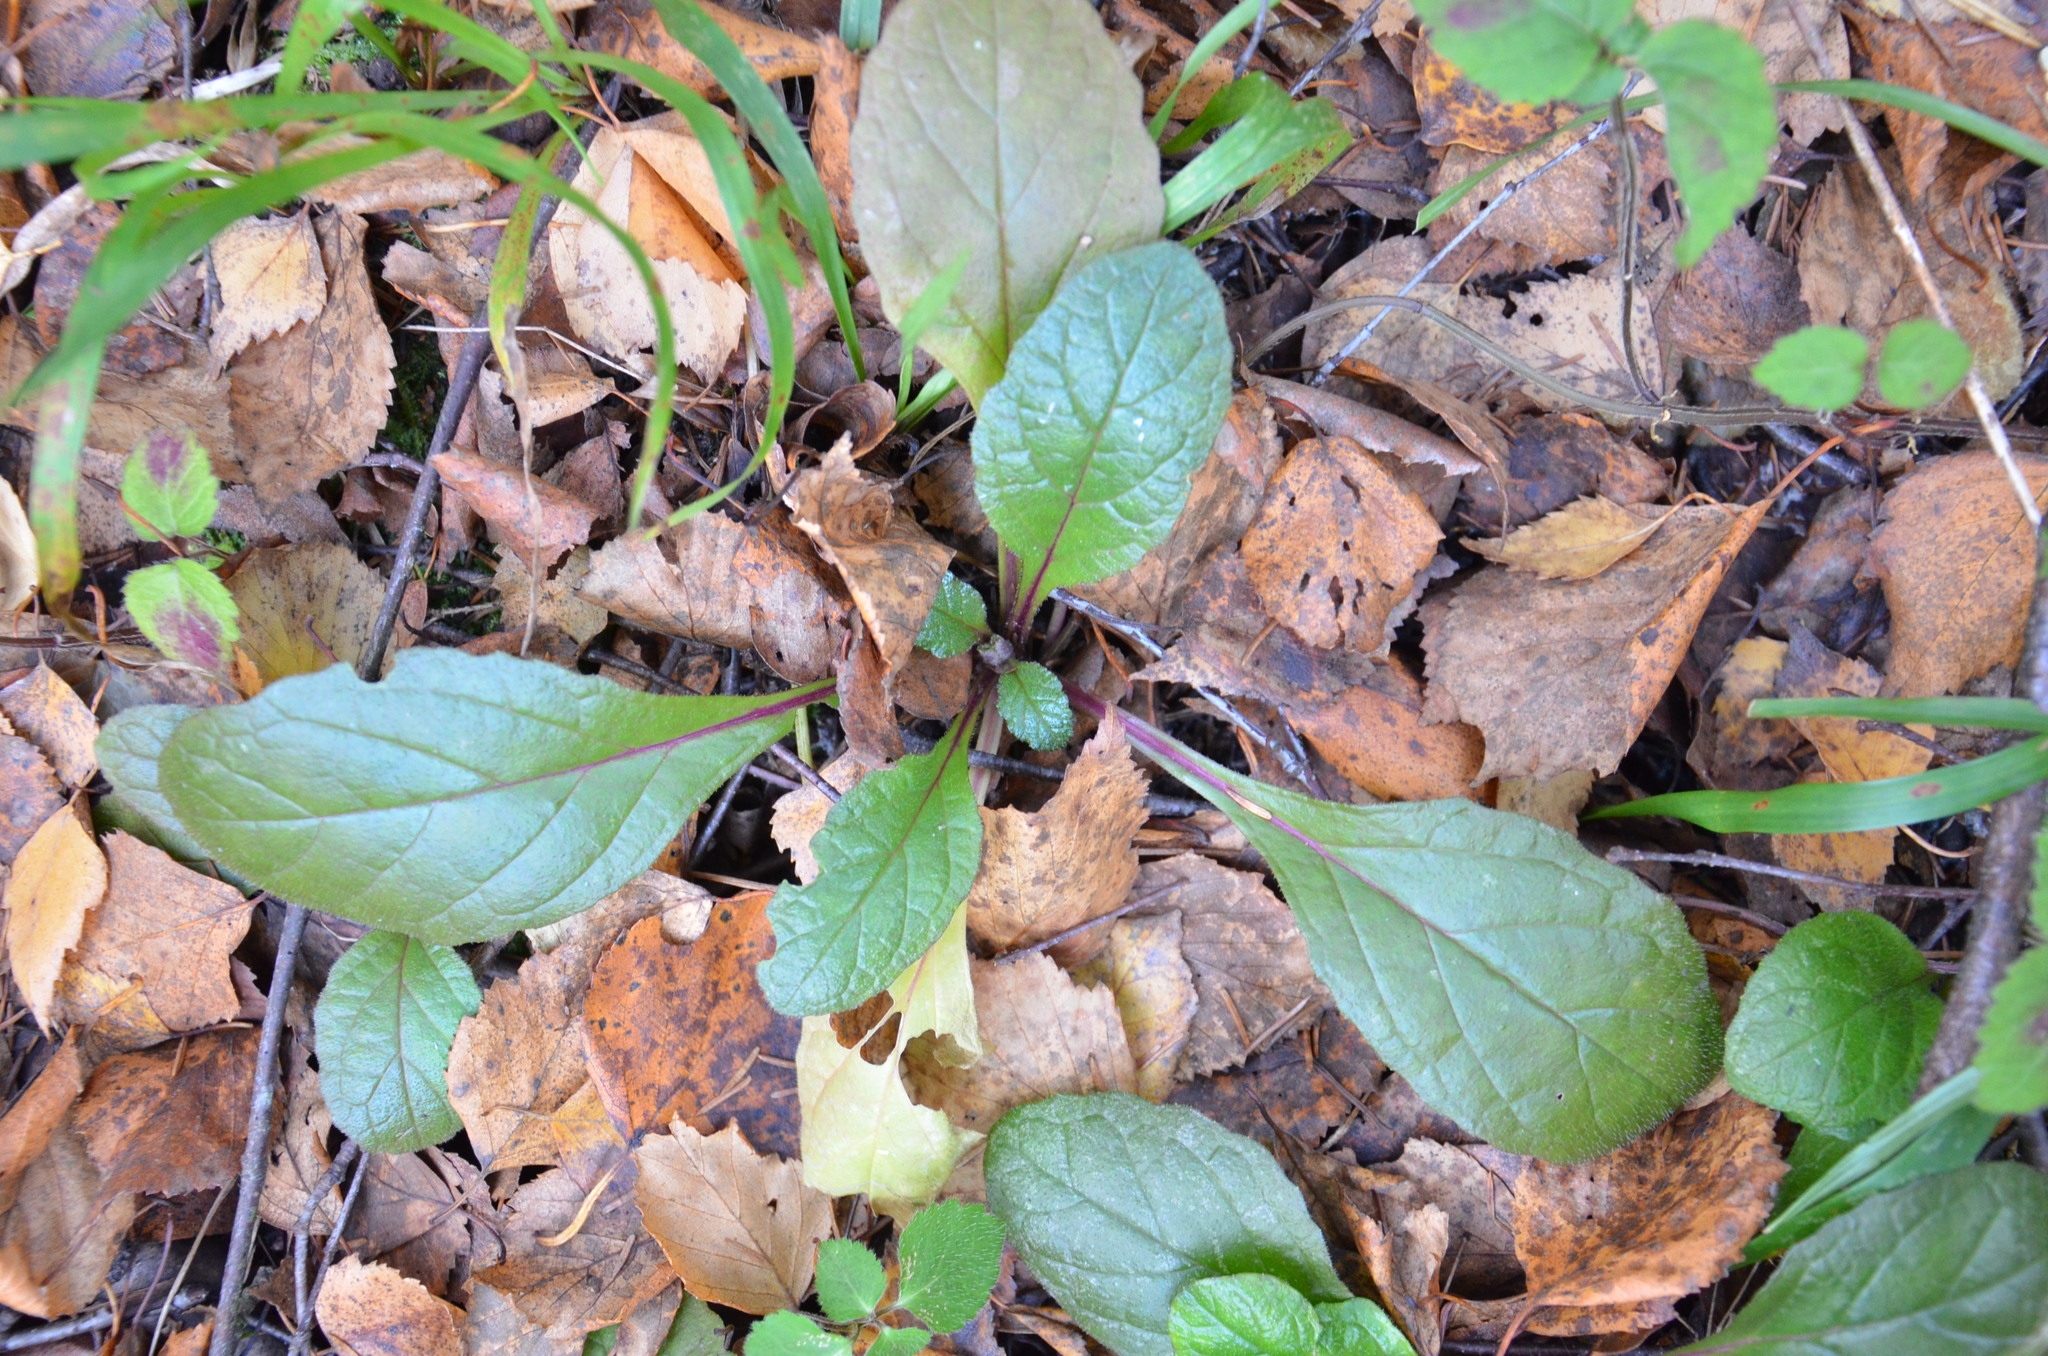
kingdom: Plantae
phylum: Tracheophyta
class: Magnoliopsida
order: Lamiales
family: Lamiaceae
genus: Ajuga
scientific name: Ajuga reptans
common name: Bugle
